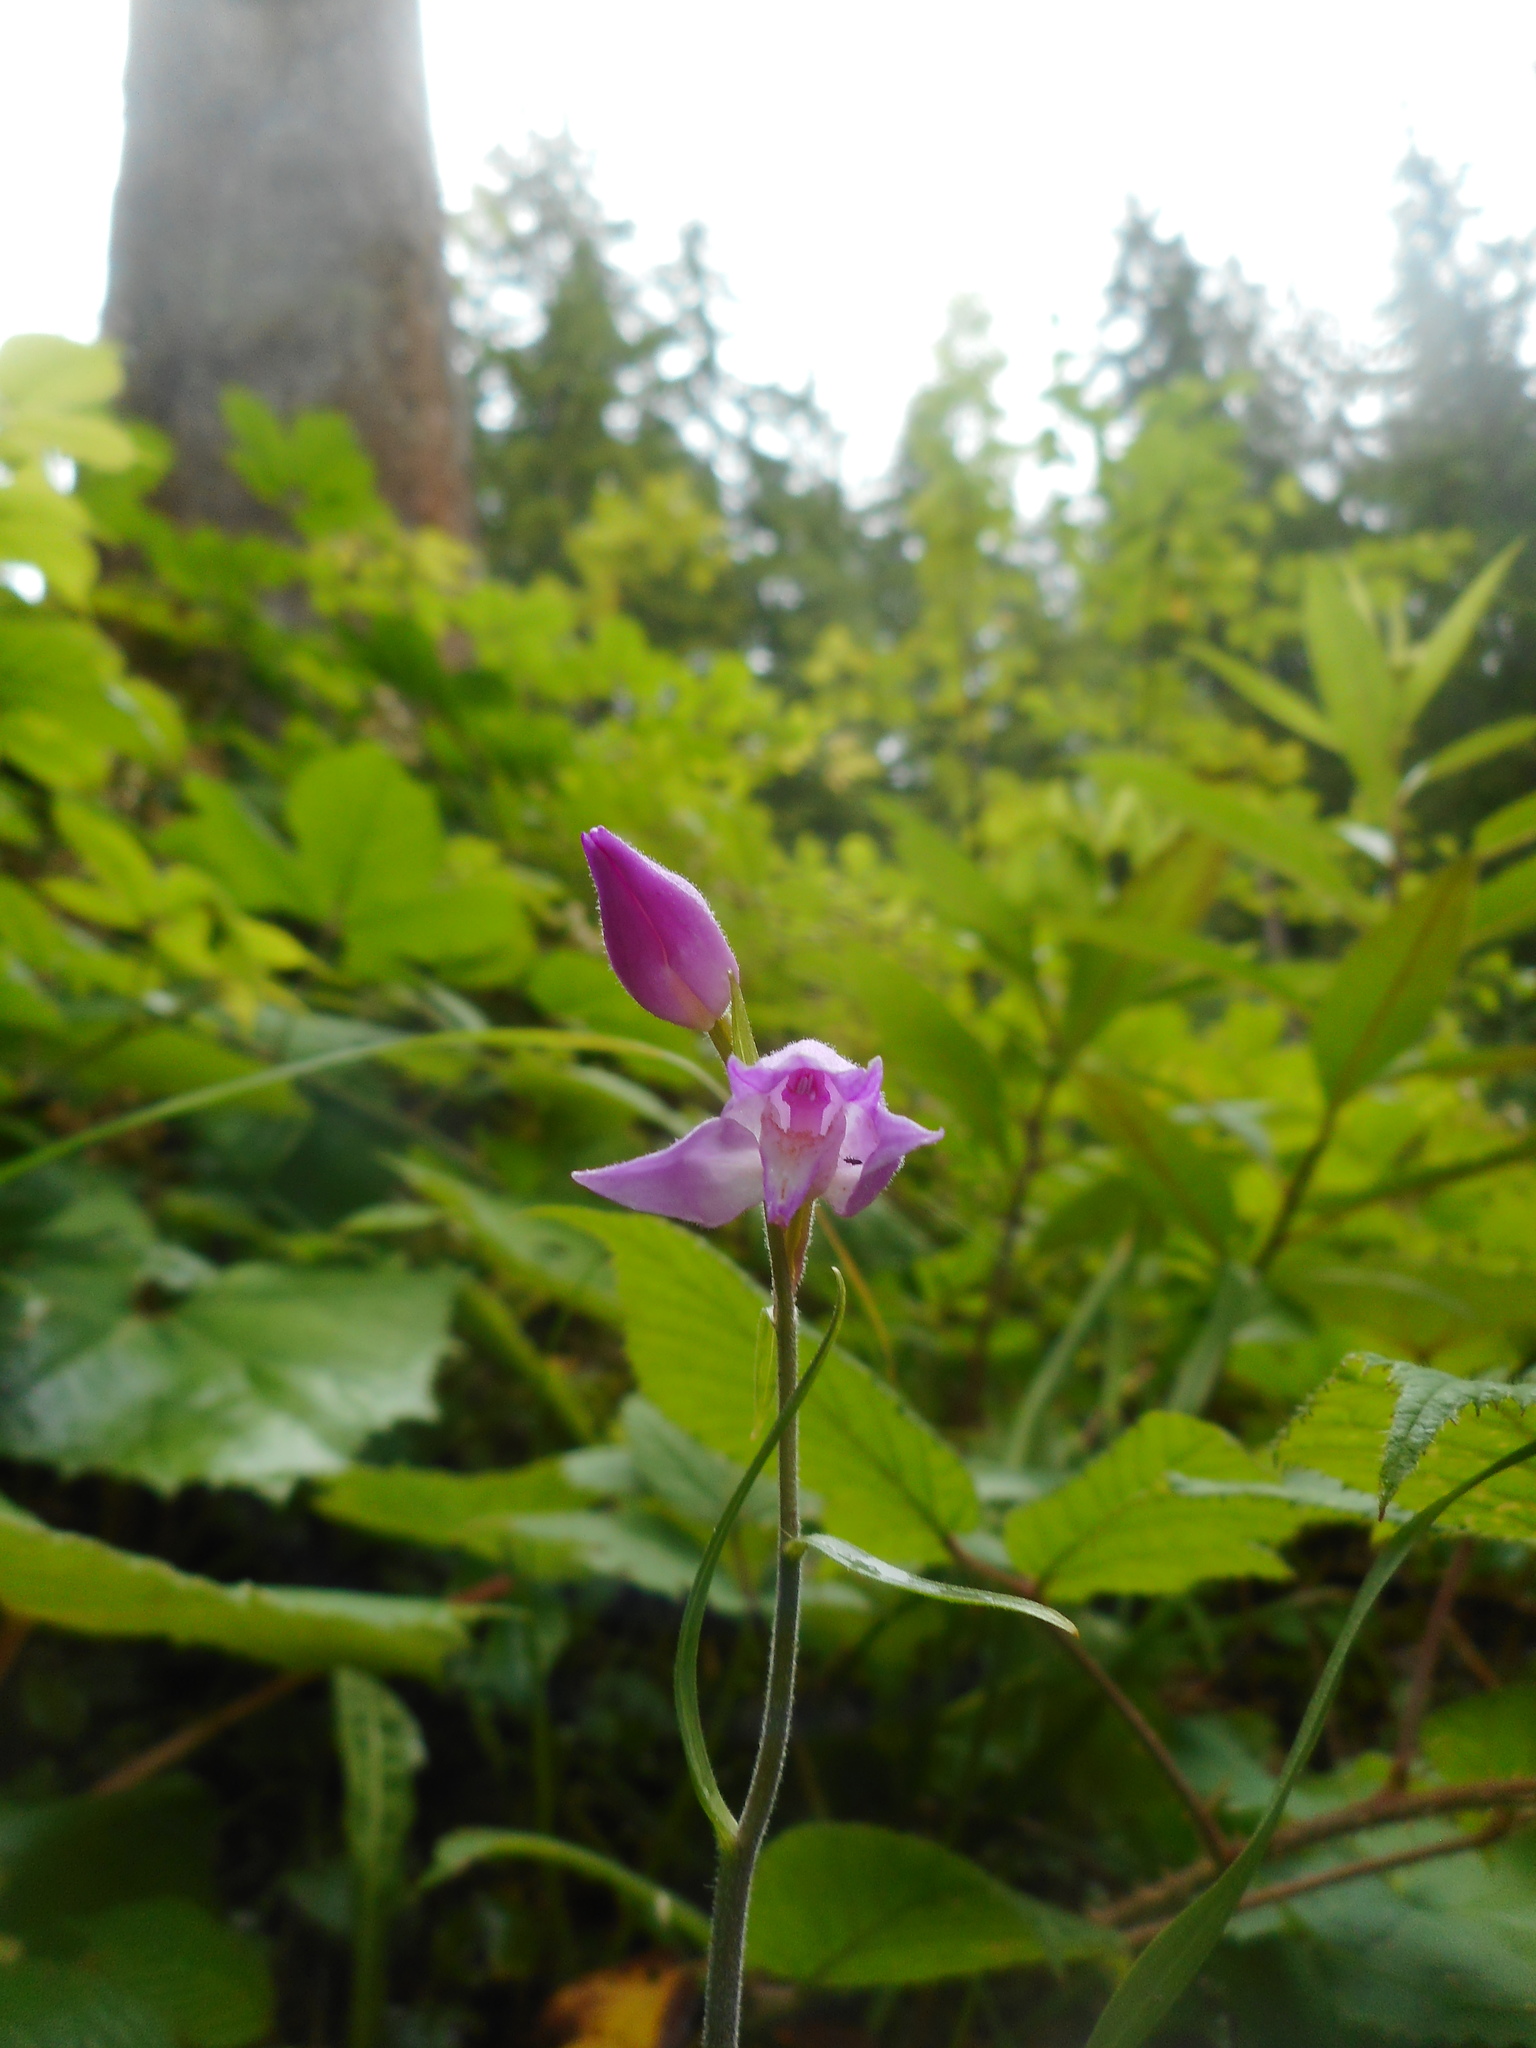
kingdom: Plantae
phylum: Tracheophyta
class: Liliopsida
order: Asparagales
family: Orchidaceae
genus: Cephalanthera
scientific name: Cephalanthera rubra
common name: Red helleborine
